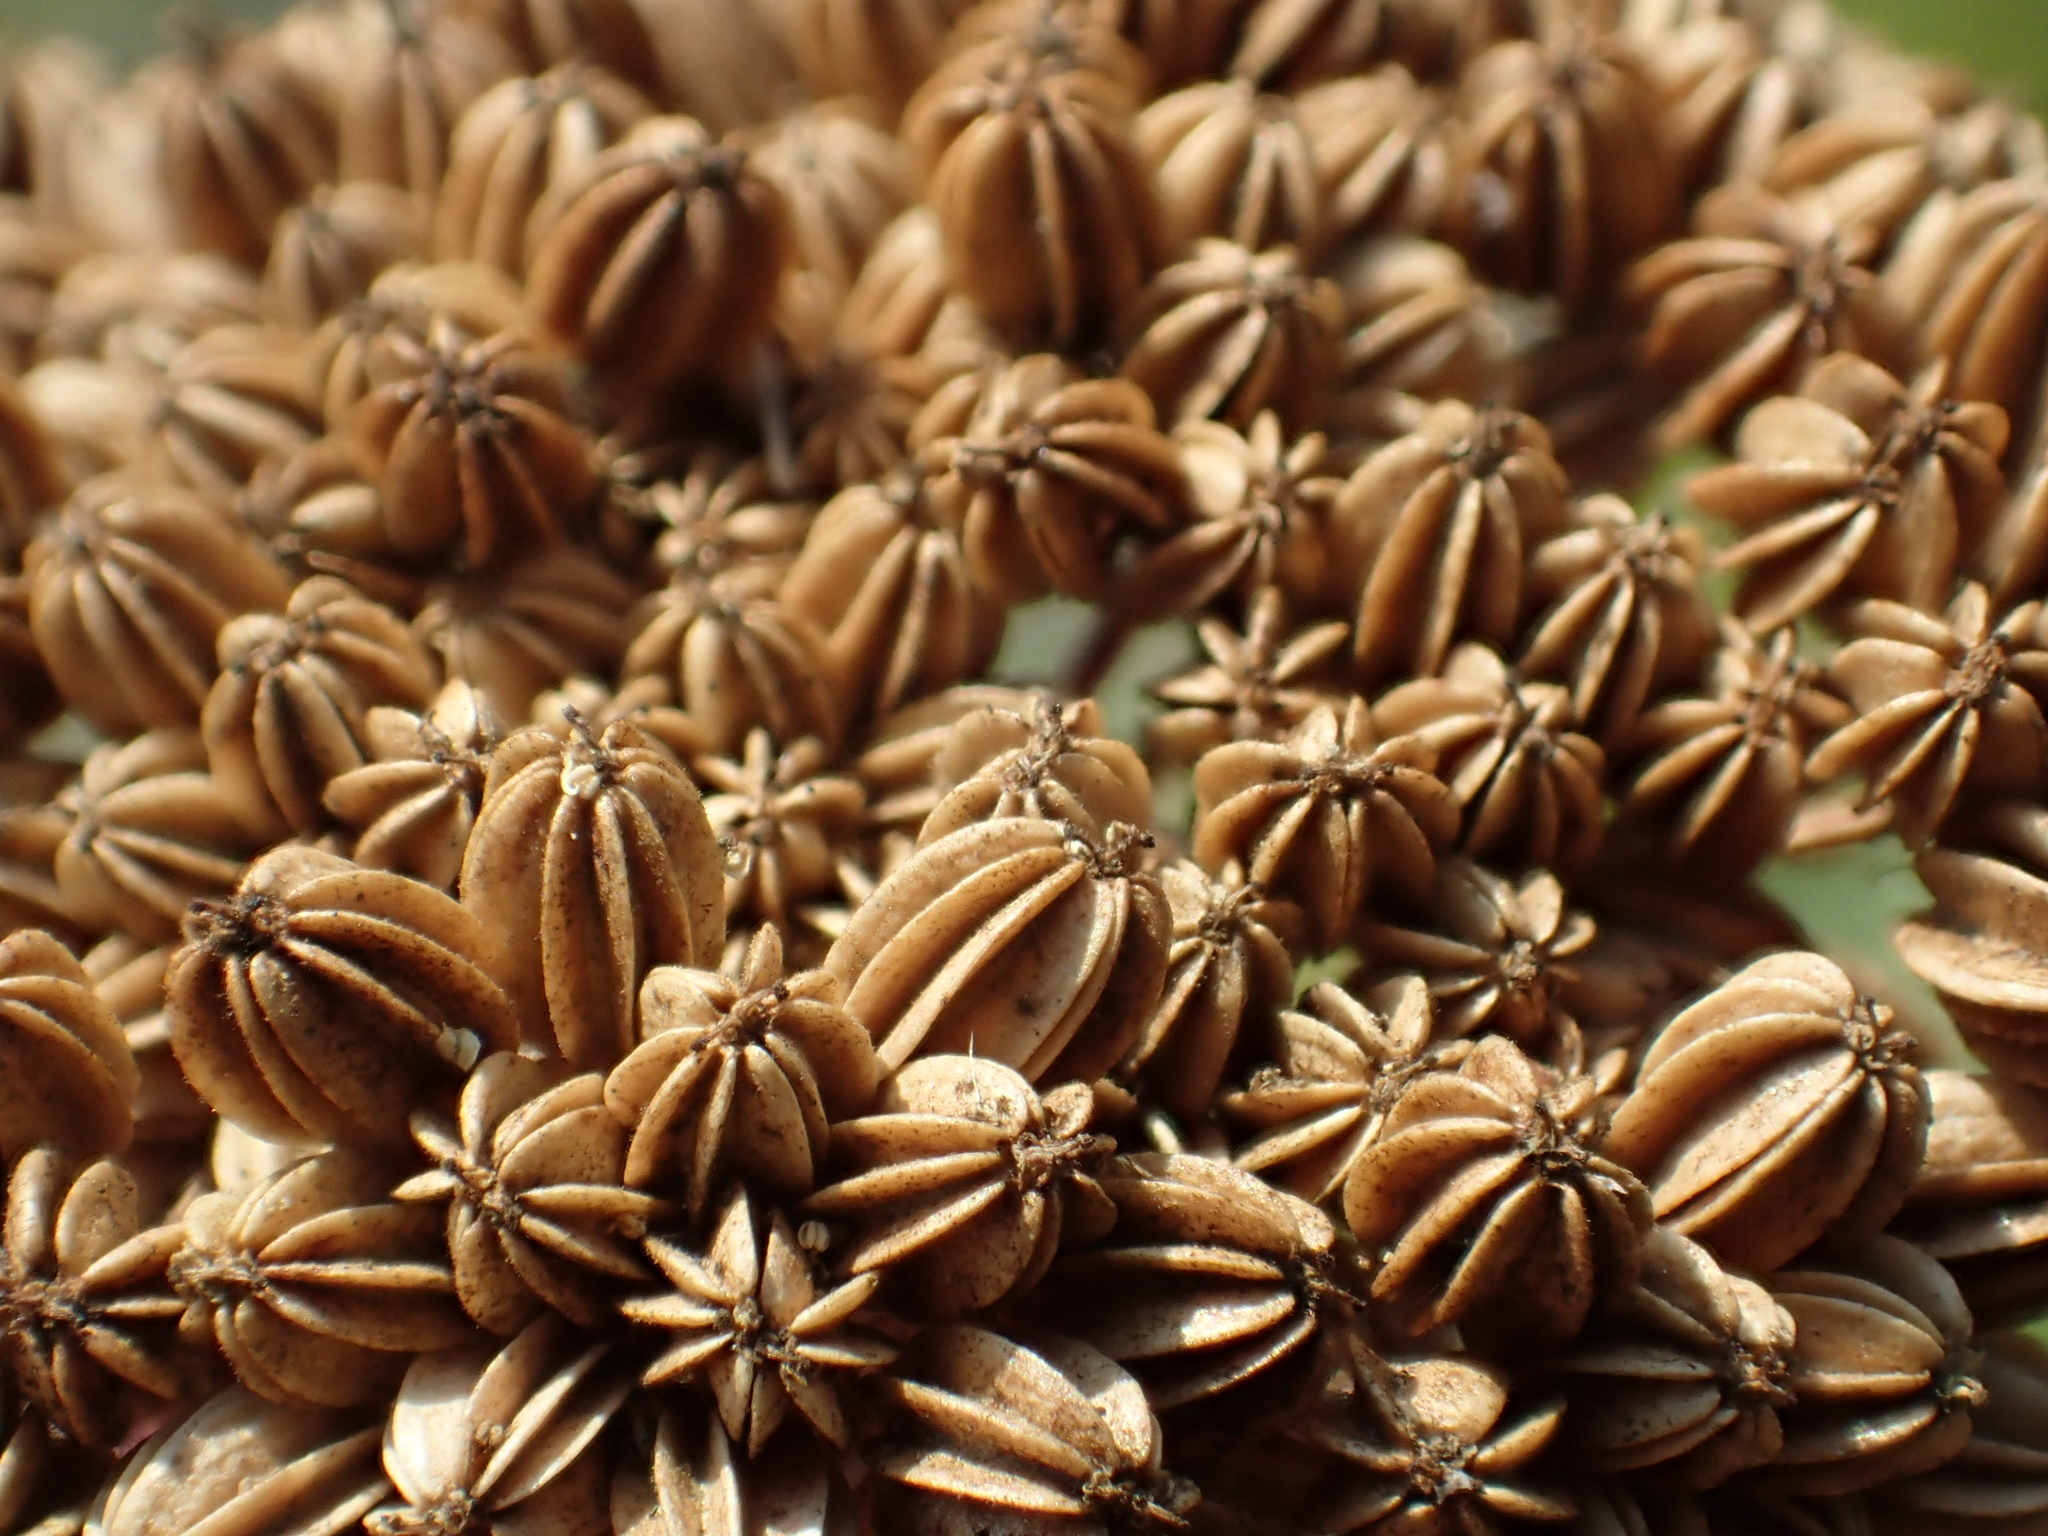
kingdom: Plantae
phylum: Tracheophyta
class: Magnoliopsida
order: Apiales
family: Apiaceae
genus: Cnidium
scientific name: Cnidium monnieri
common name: Monnier's snowparsley
